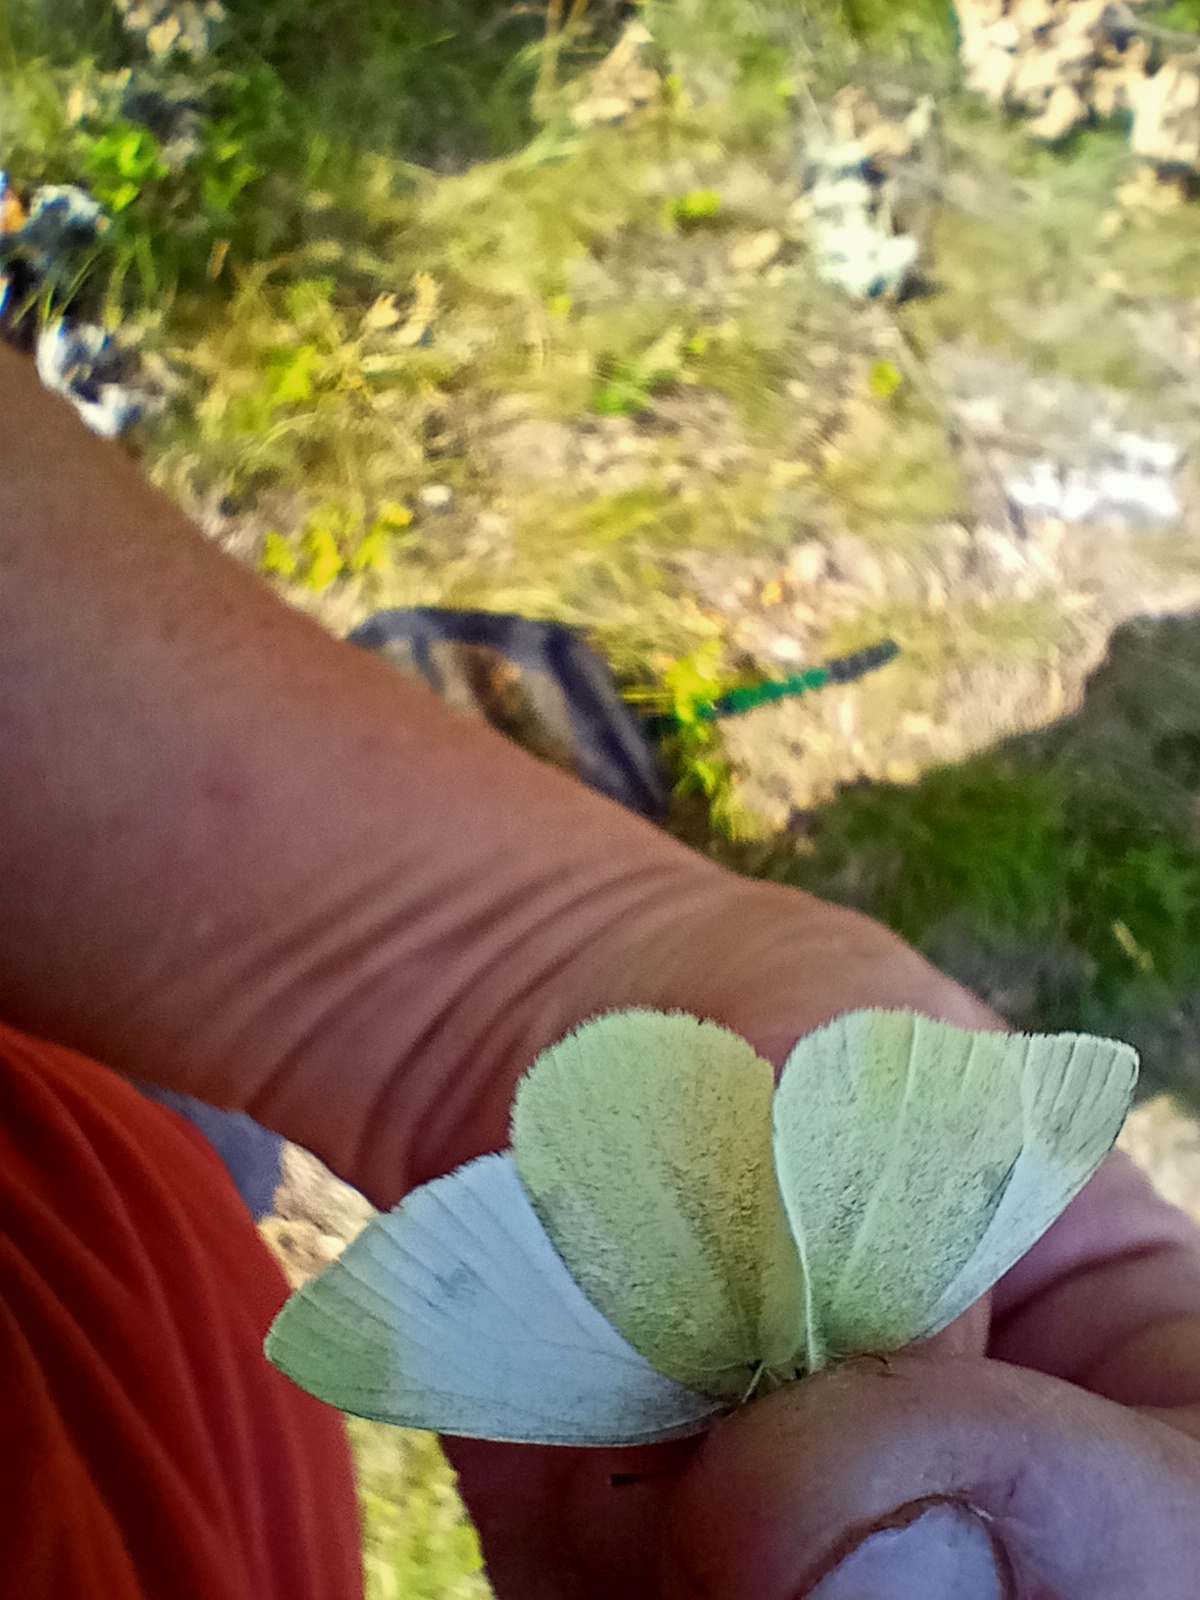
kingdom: Animalia
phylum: Arthropoda
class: Insecta
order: Lepidoptera
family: Pieridae
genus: Pieris
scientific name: Pieris ergane
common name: Mountain small white
